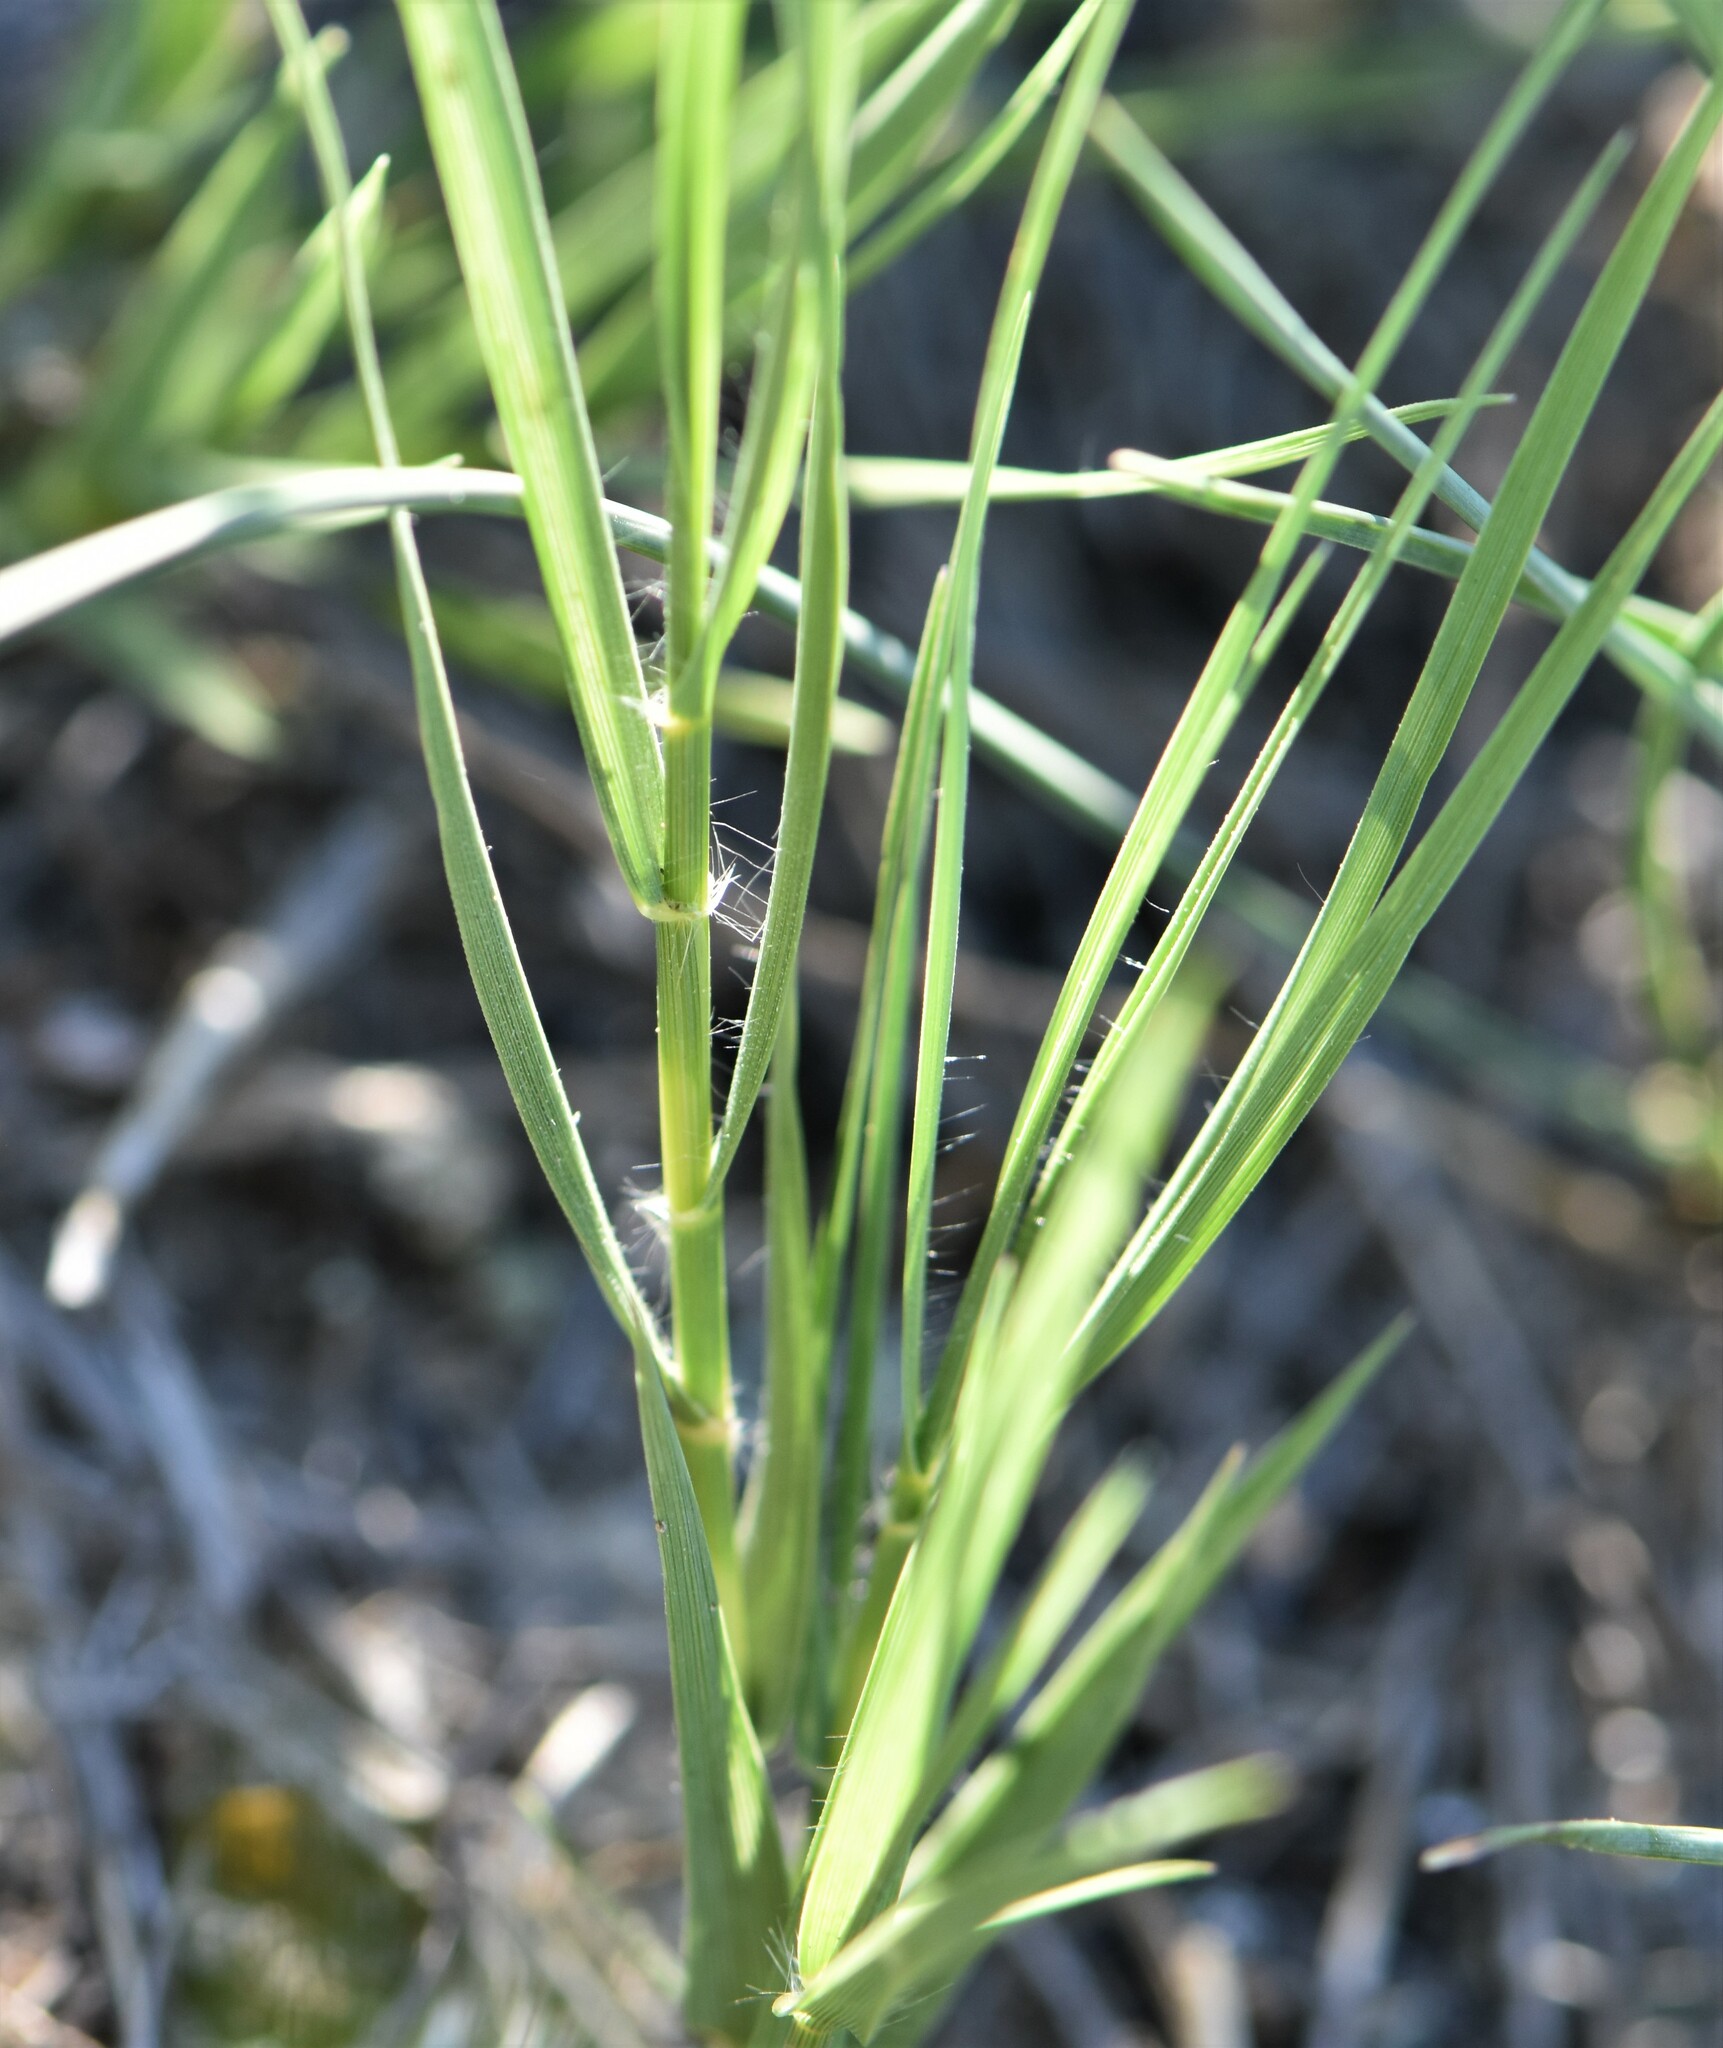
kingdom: Plantae
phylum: Tracheophyta
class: Liliopsida
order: Poales
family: Poaceae
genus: Distichlis
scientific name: Distichlis spicata
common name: Saltgrass
